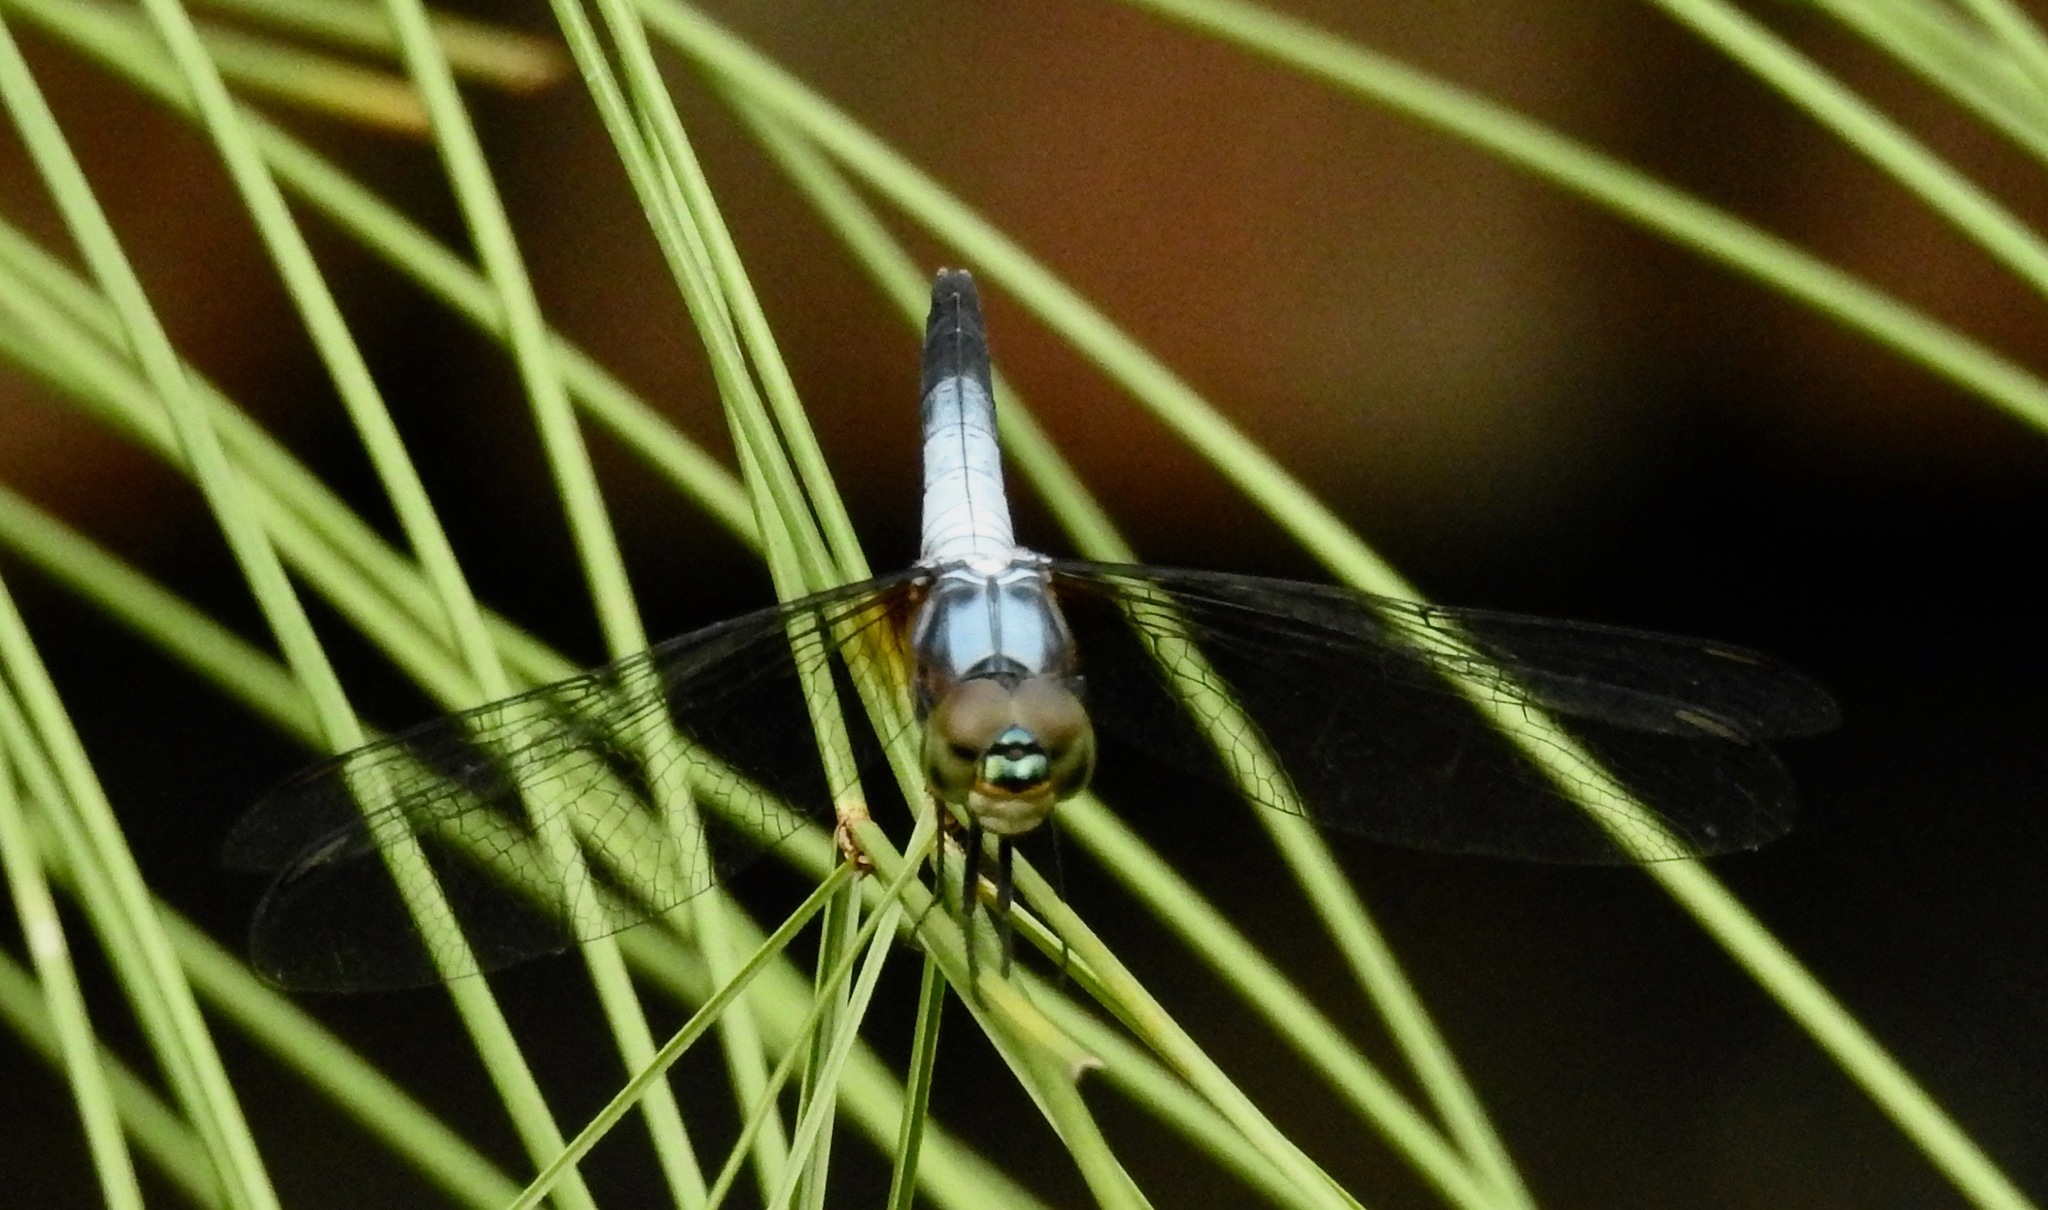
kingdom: Animalia
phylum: Arthropoda
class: Insecta
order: Odonata
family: Libellulidae
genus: Brachydiplax
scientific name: Brachydiplax chalybea
